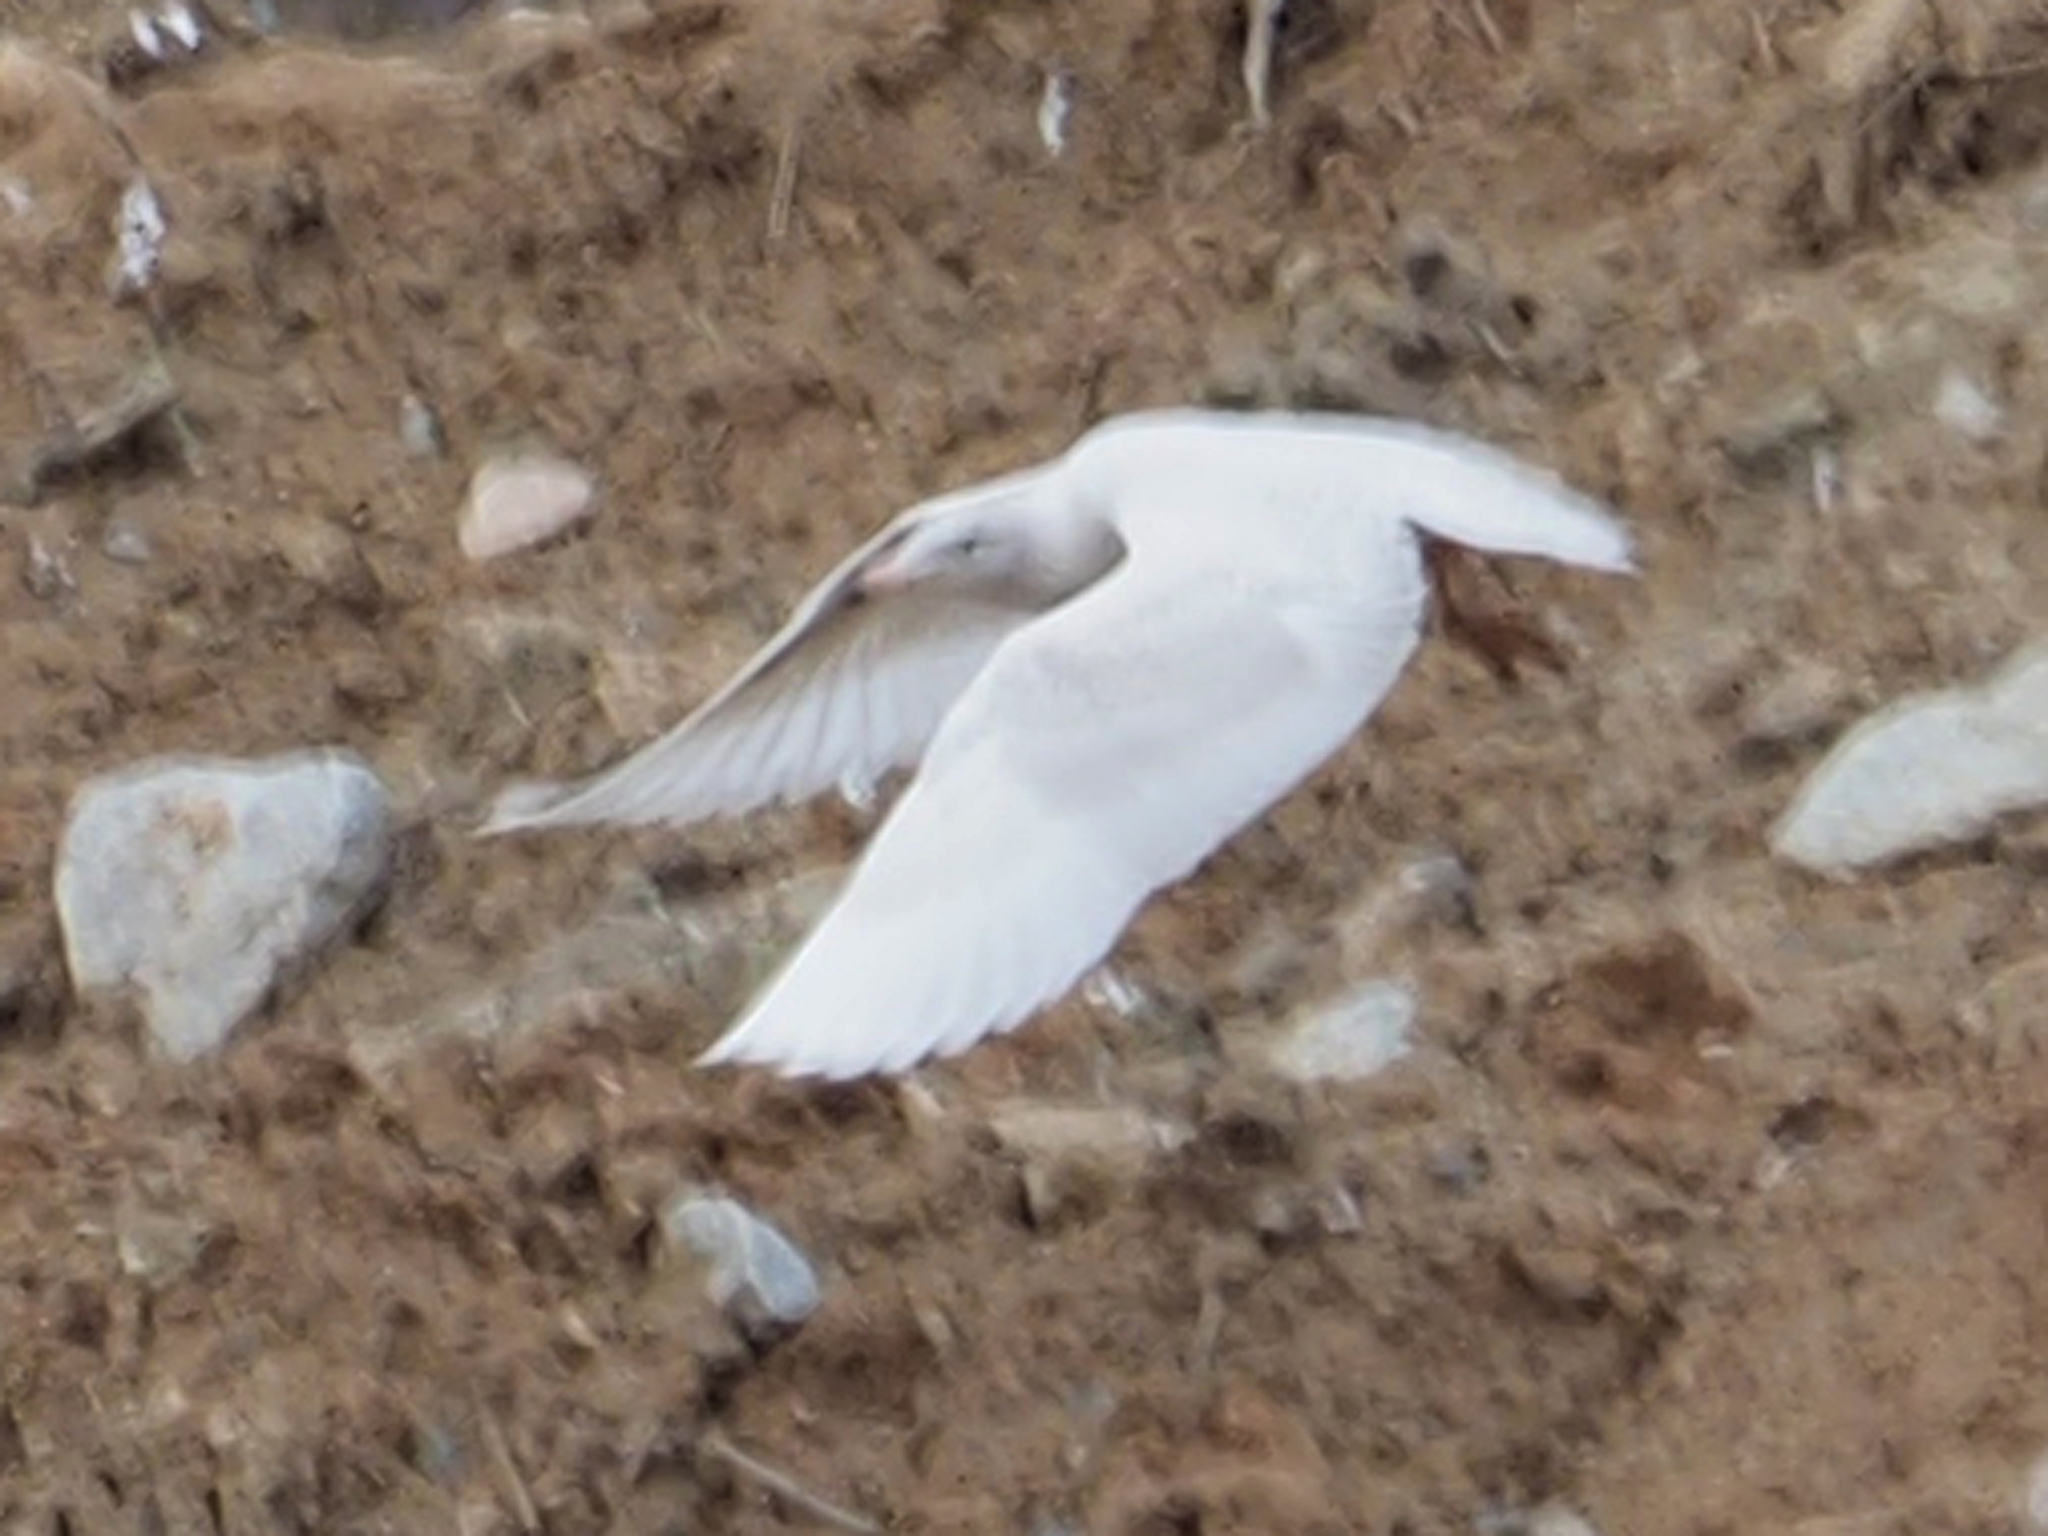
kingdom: Animalia
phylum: Chordata
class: Aves
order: Charadriiformes
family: Laridae
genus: Larus
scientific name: Larus hyperboreus
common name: Glaucous gull
